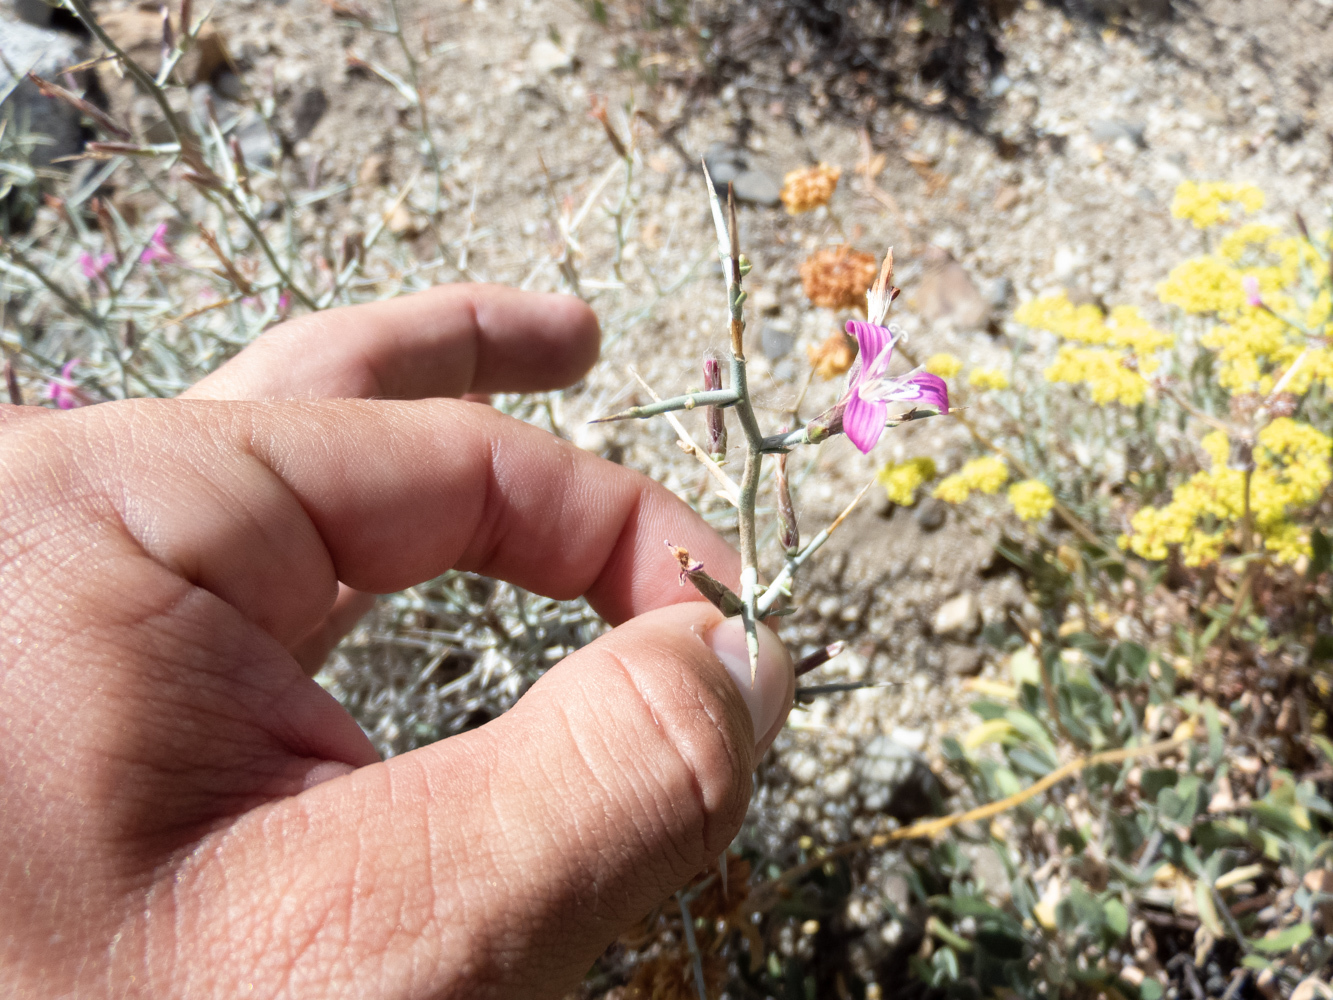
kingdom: Plantae
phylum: Tracheophyta
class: Magnoliopsida
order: Asterales
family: Asteraceae
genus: Pleiacanthus
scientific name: Pleiacanthus spinosus
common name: Thorny skeleton-weed
